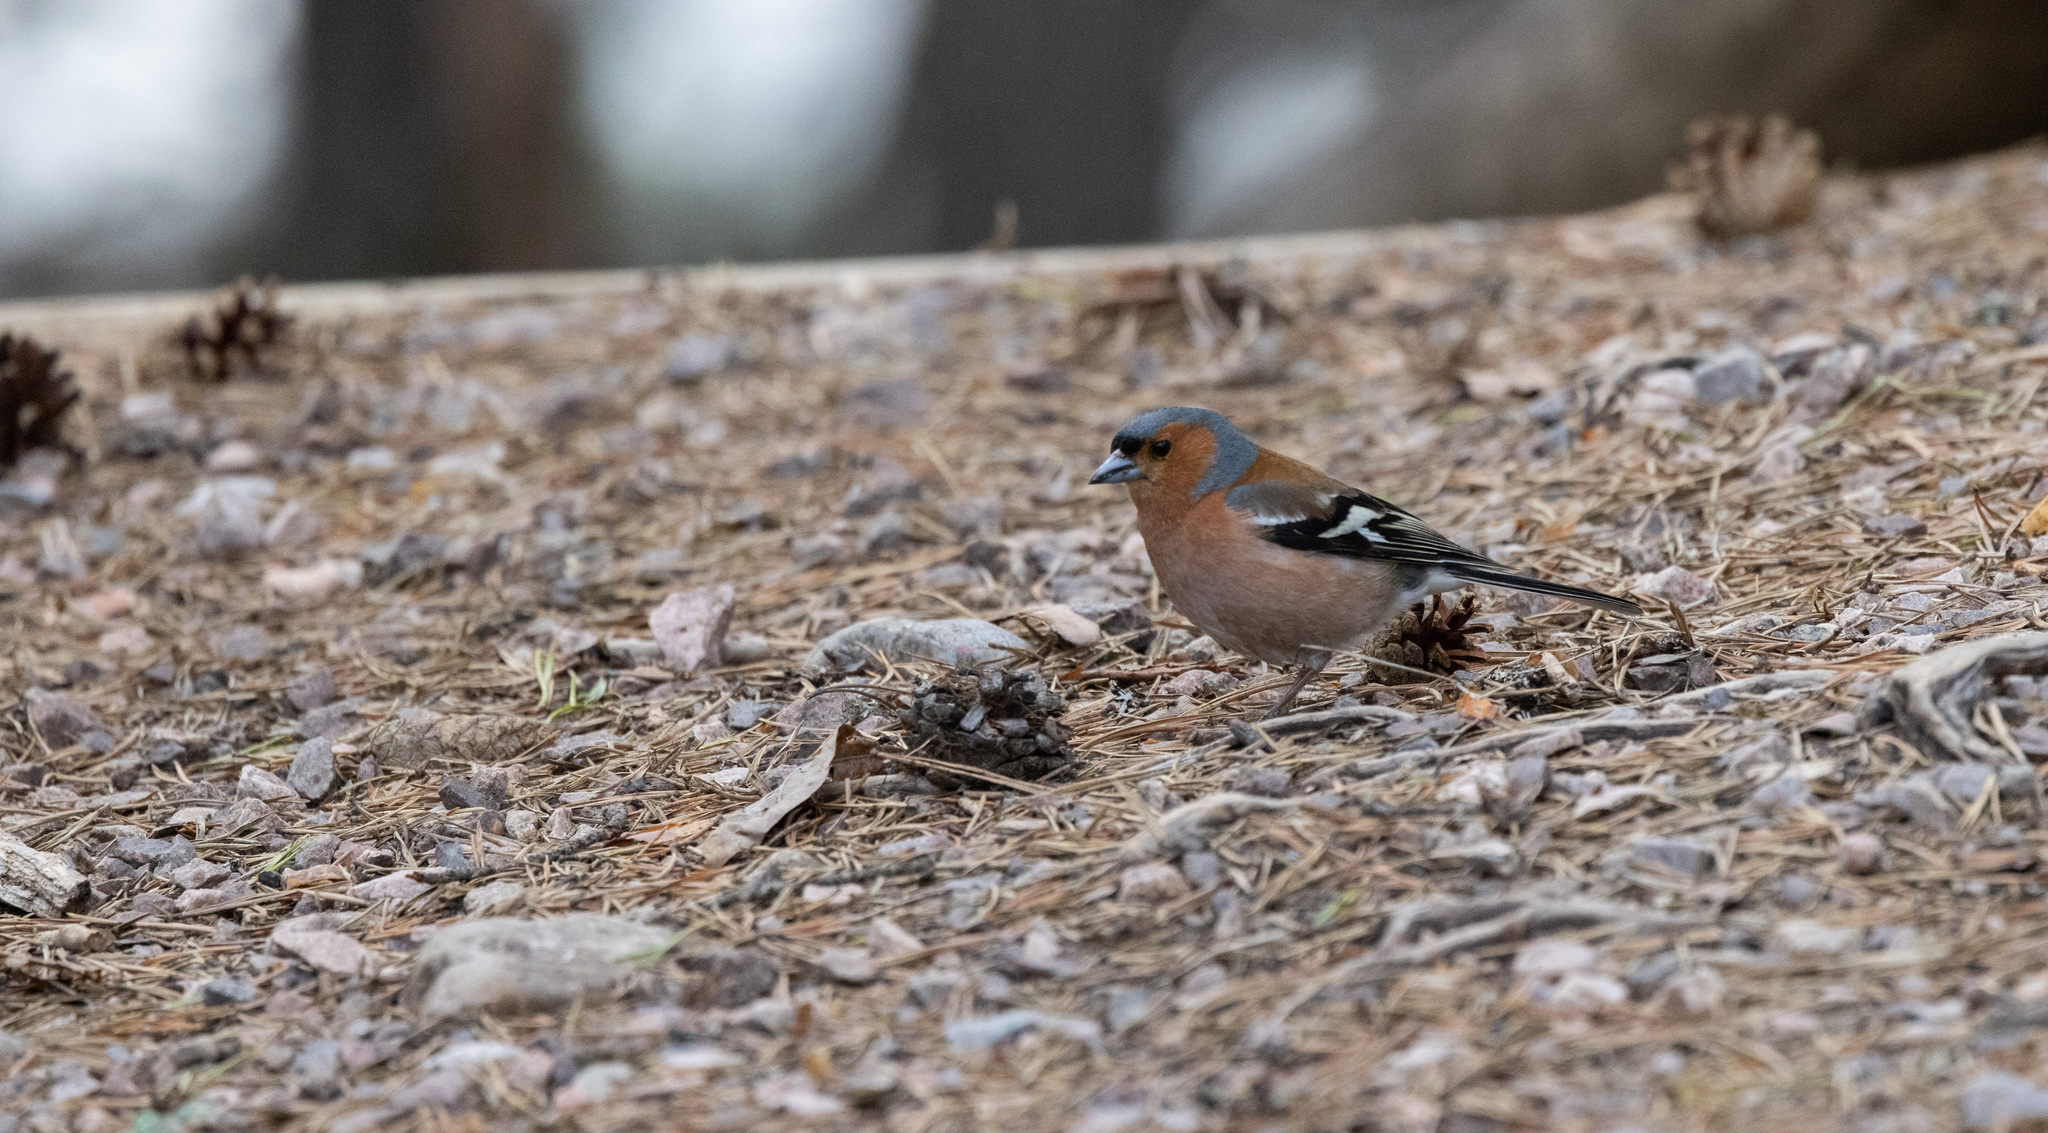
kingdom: Animalia
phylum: Chordata
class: Aves
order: Passeriformes
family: Fringillidae
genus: Fringilla
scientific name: Fringilla coelebs
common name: Common chaffinch
